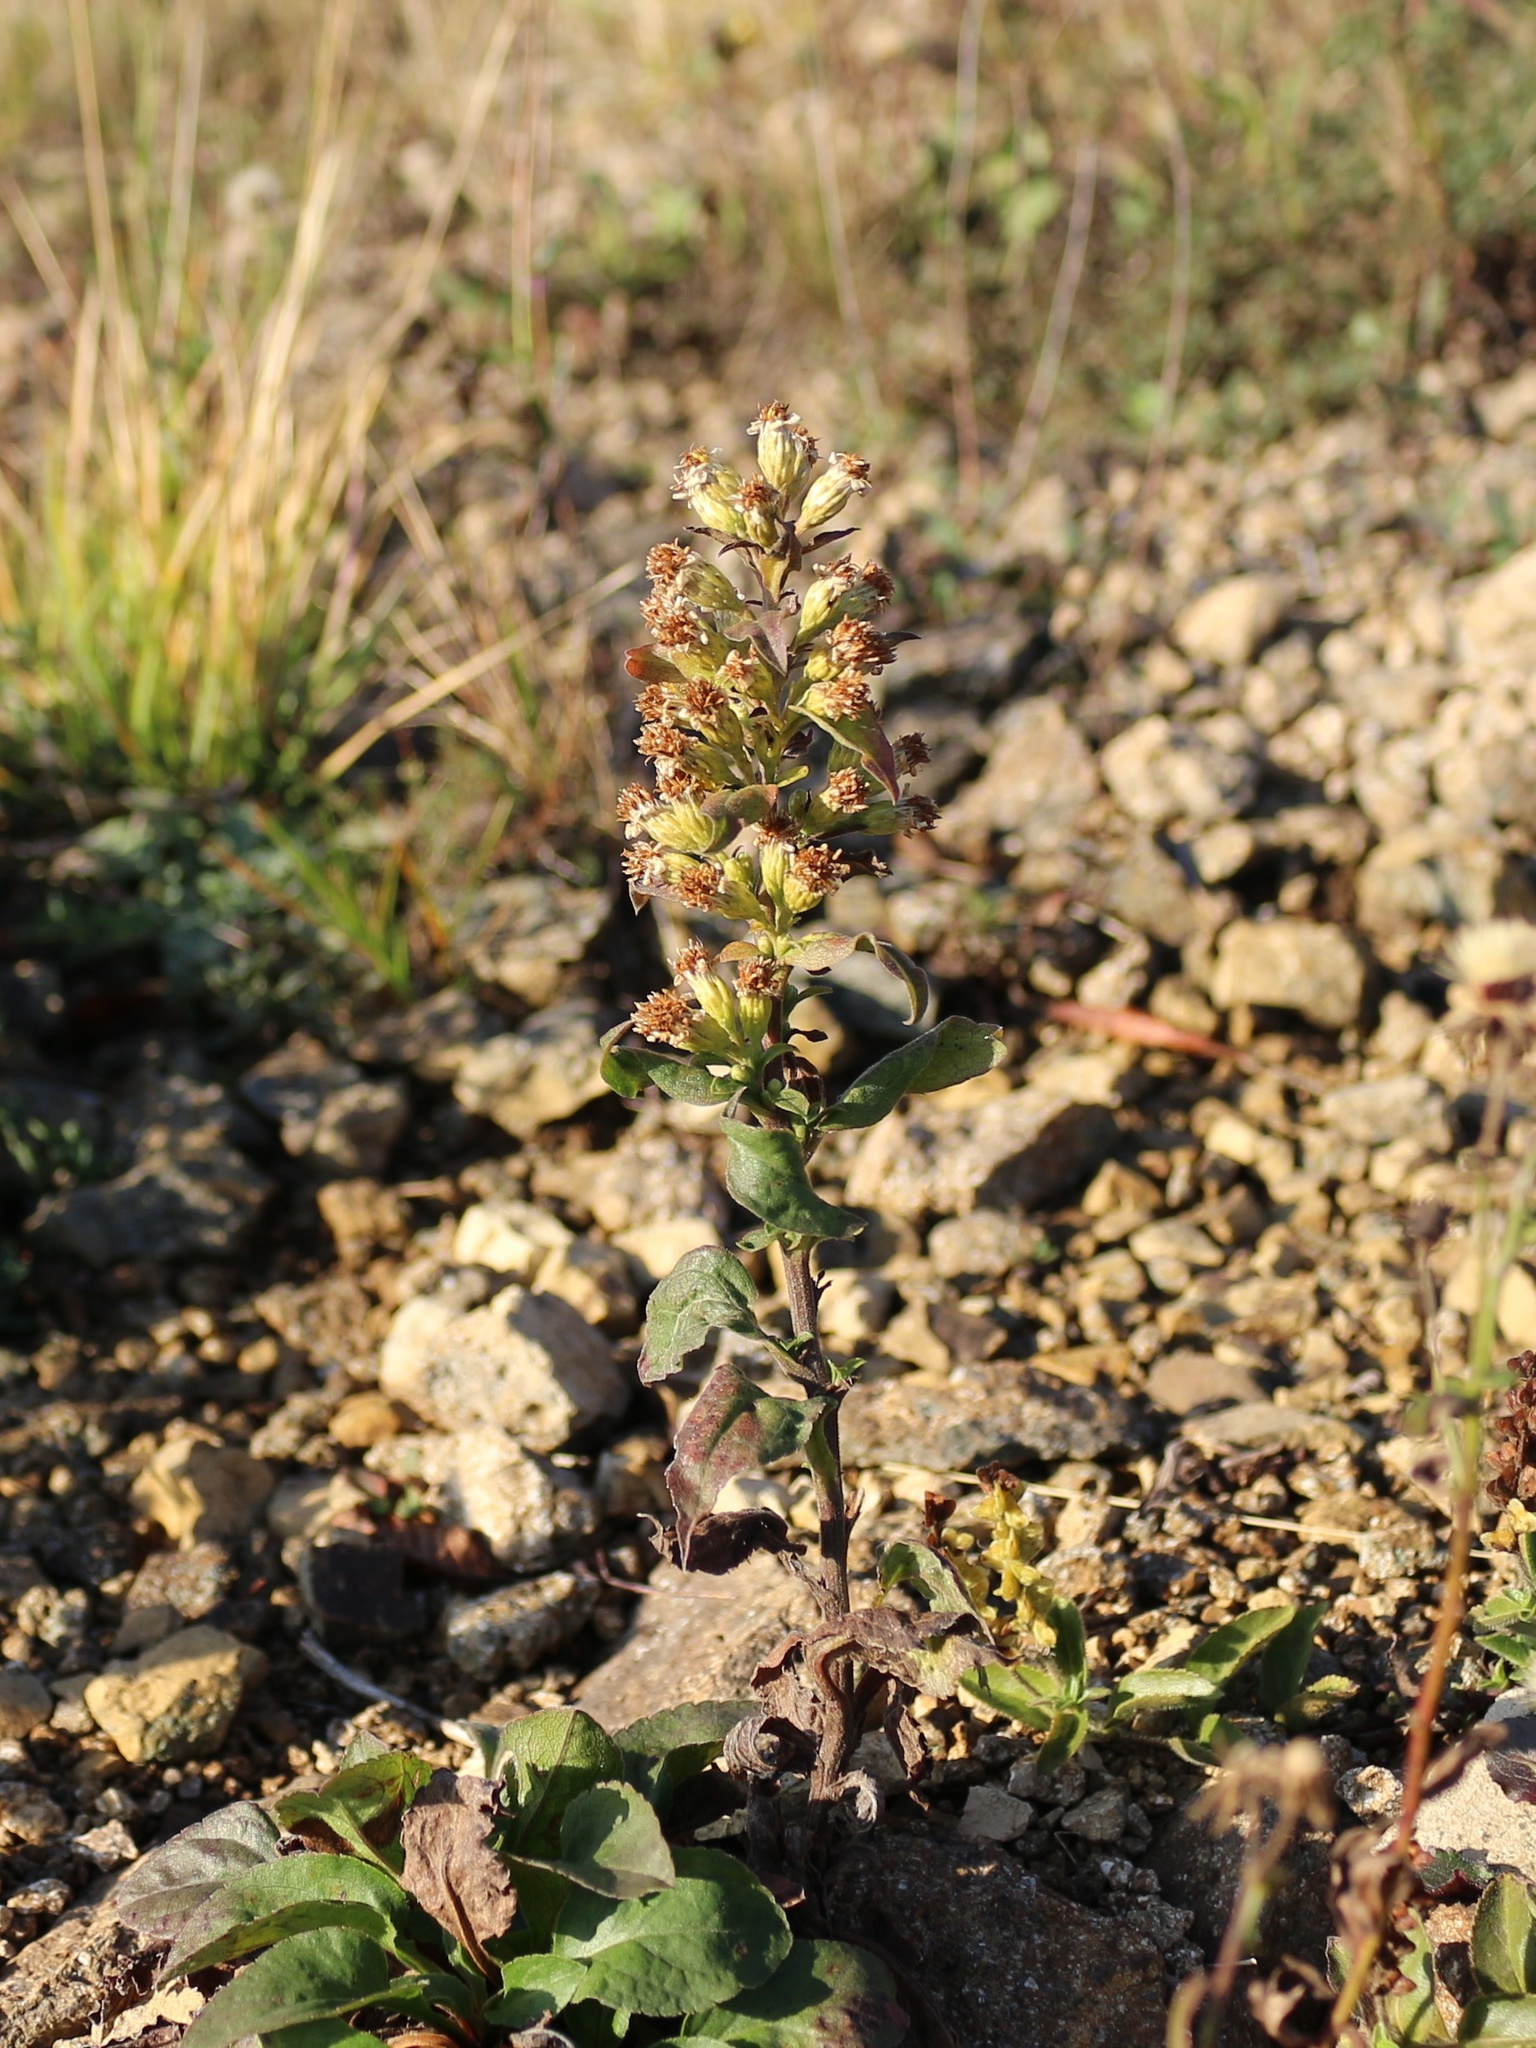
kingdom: Plantae
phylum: Tracheophyta
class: Magnoliopsida
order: Asterales
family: Asteraceae
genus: Solidago
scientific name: Solidago virgaurea
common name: Goldenrod
